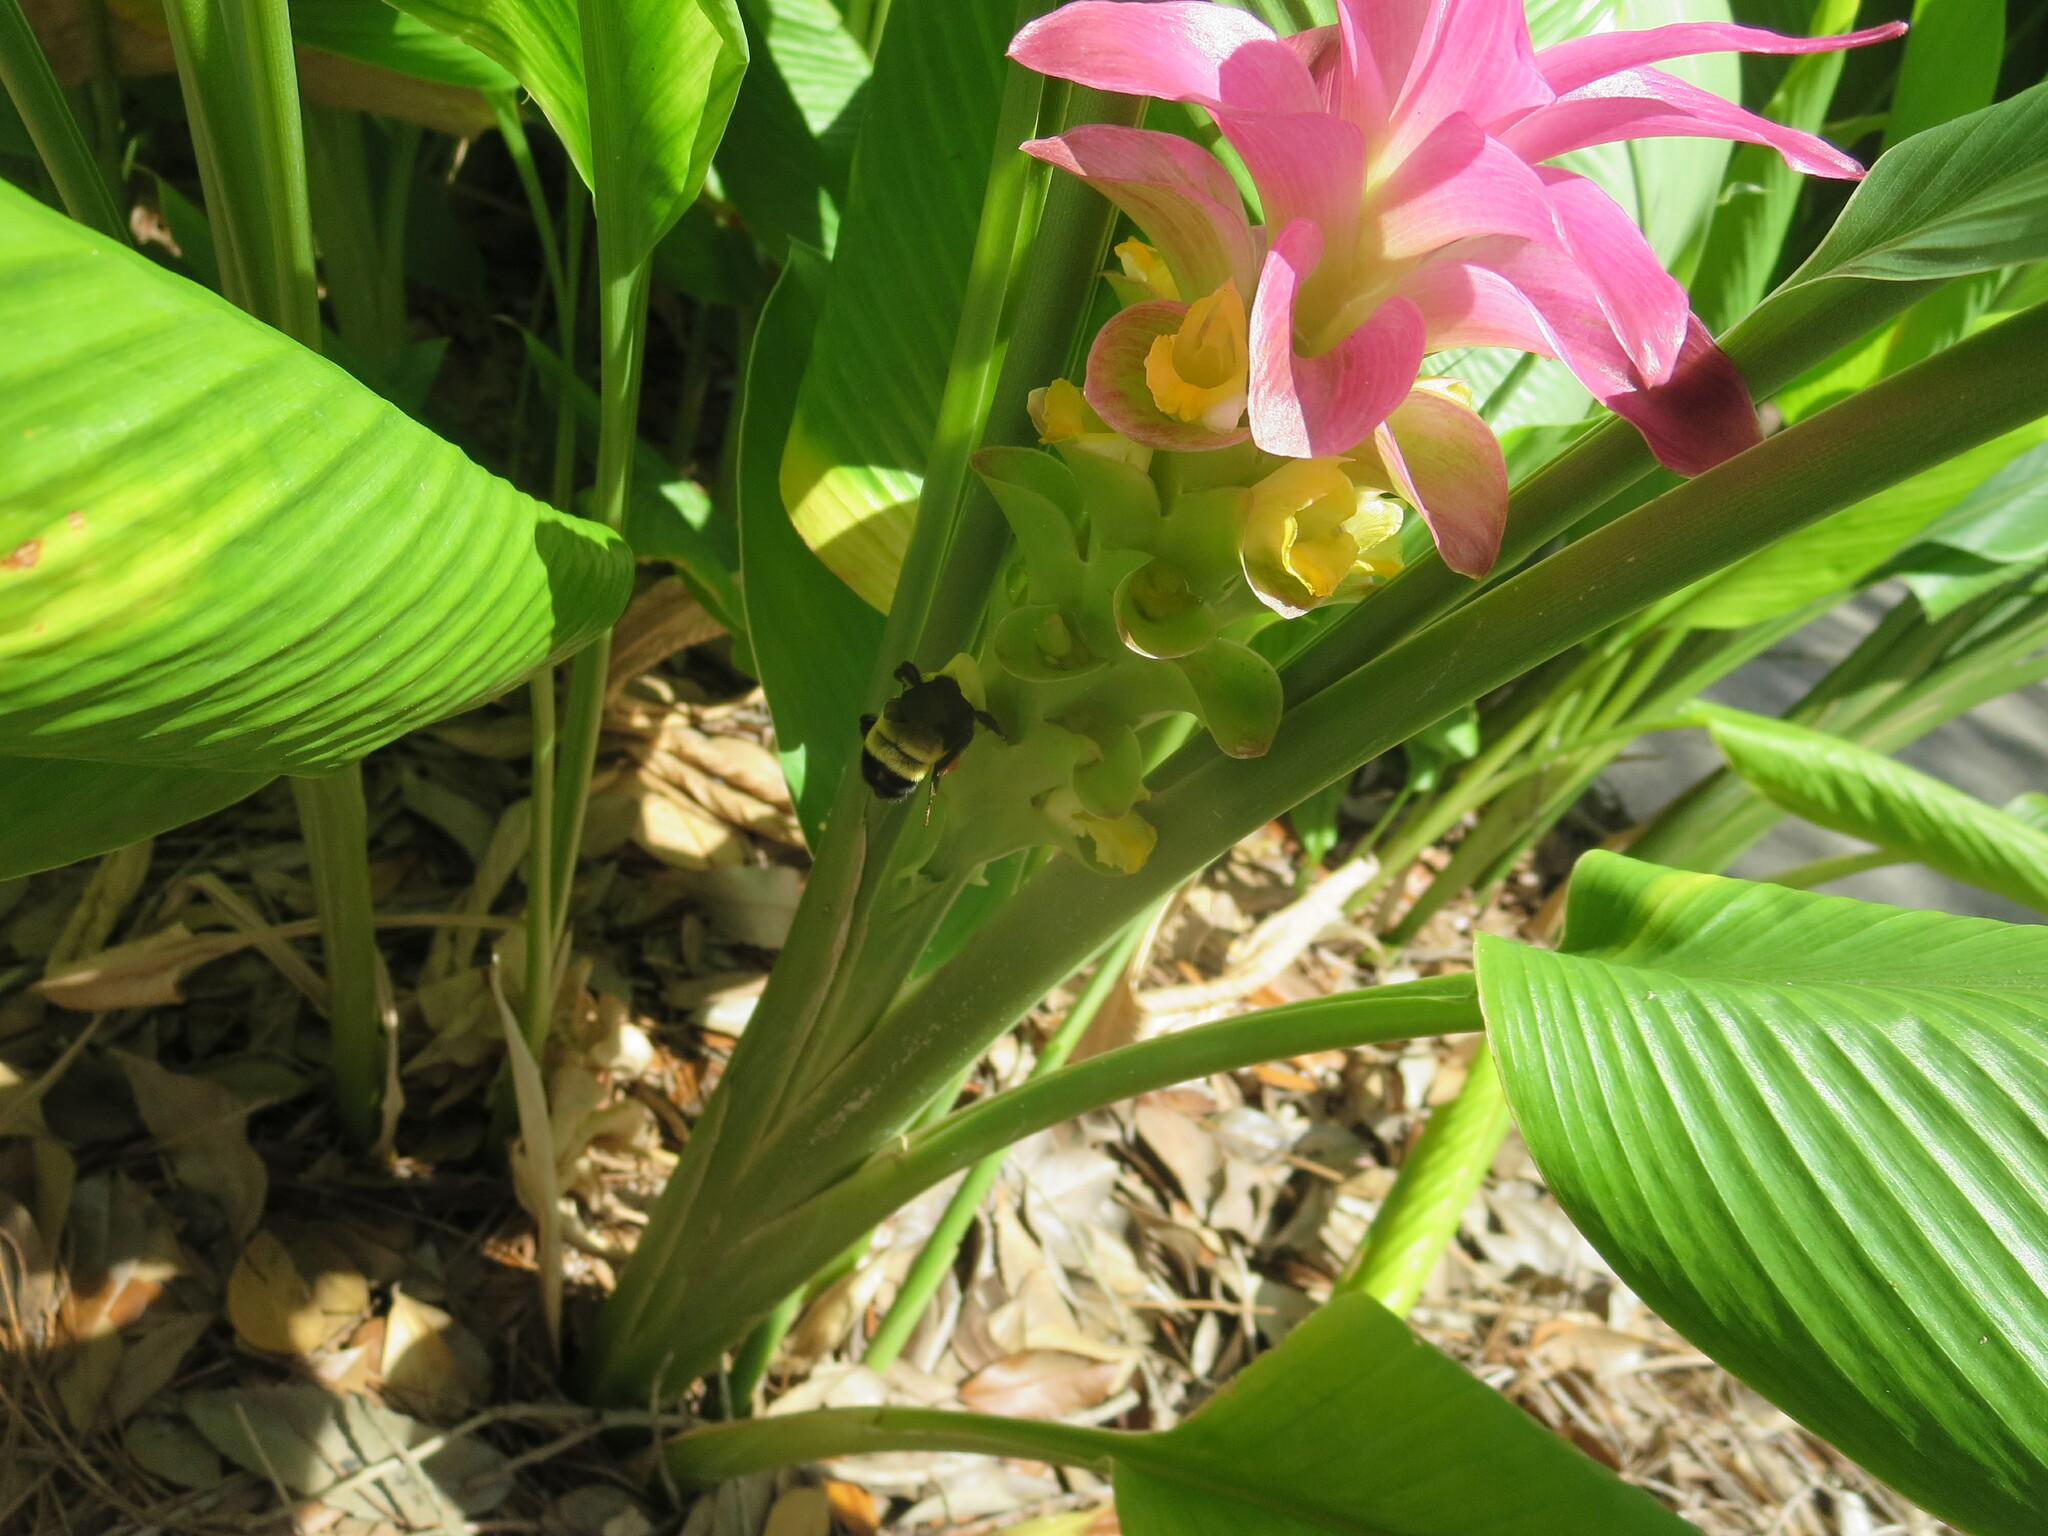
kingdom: Animalia
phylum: Arthropoda
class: Insecta
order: Hymenoptera
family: Apidae
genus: Bombus
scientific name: Bombus pensylvanicus
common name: Bumble bee
